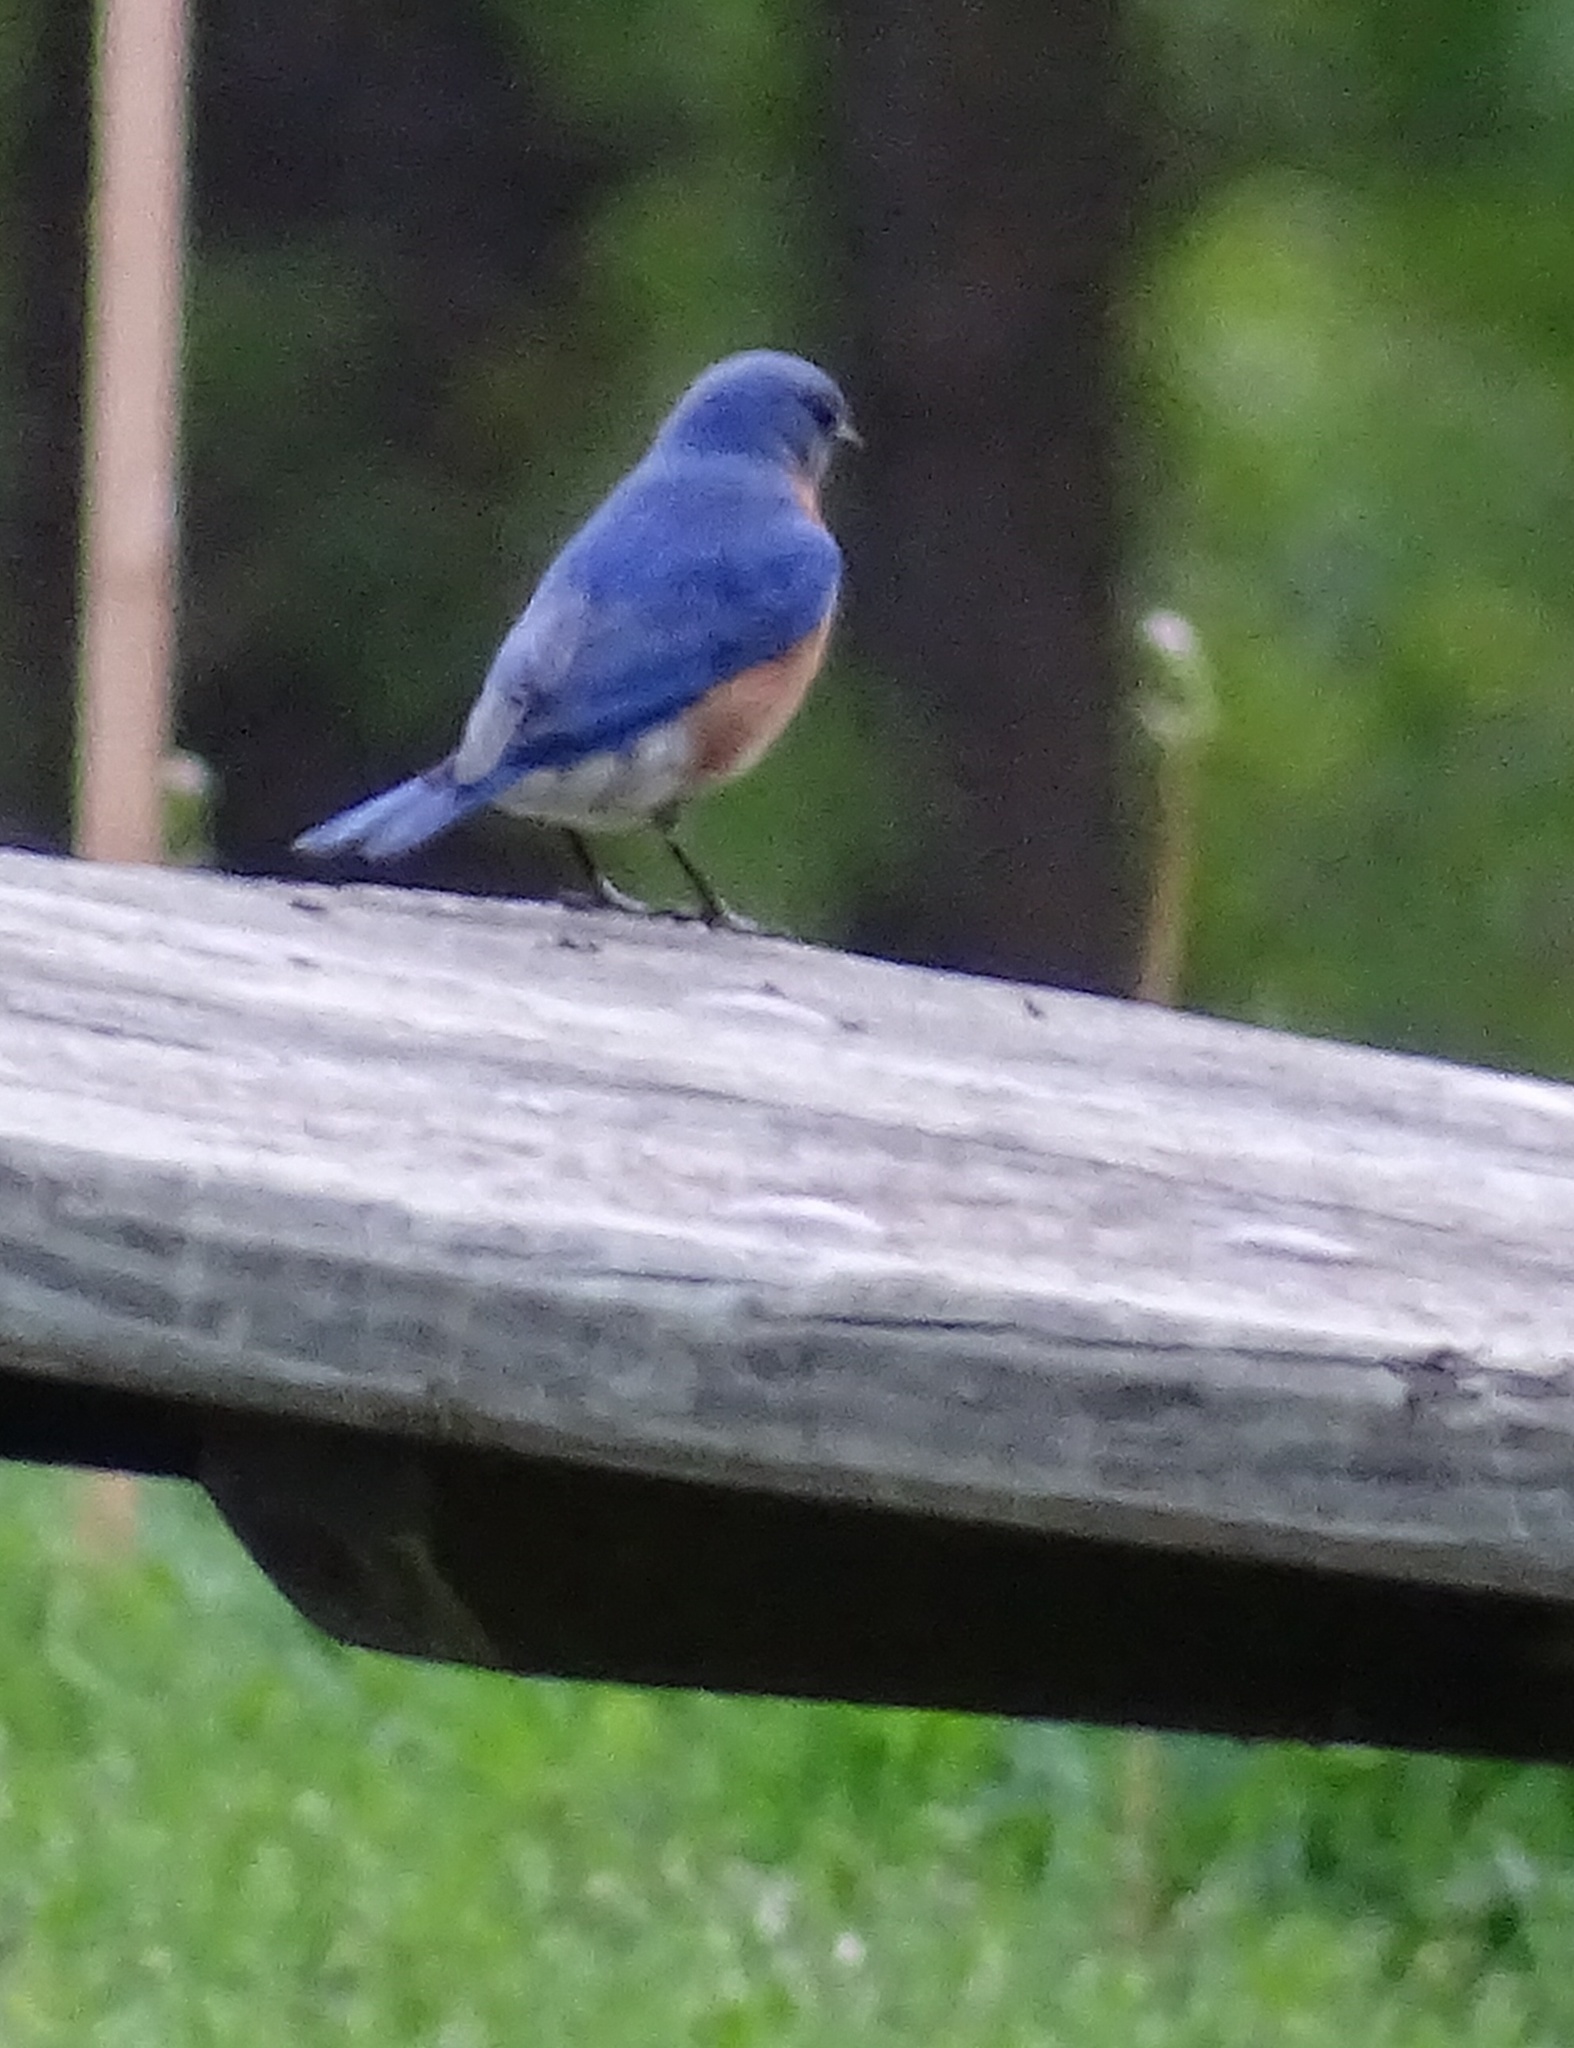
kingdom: Animalia
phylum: Chordata
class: Aves
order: Passeriformes
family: Turdidae
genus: Sialia
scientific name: Sialia sialis
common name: Eastern bluebird
